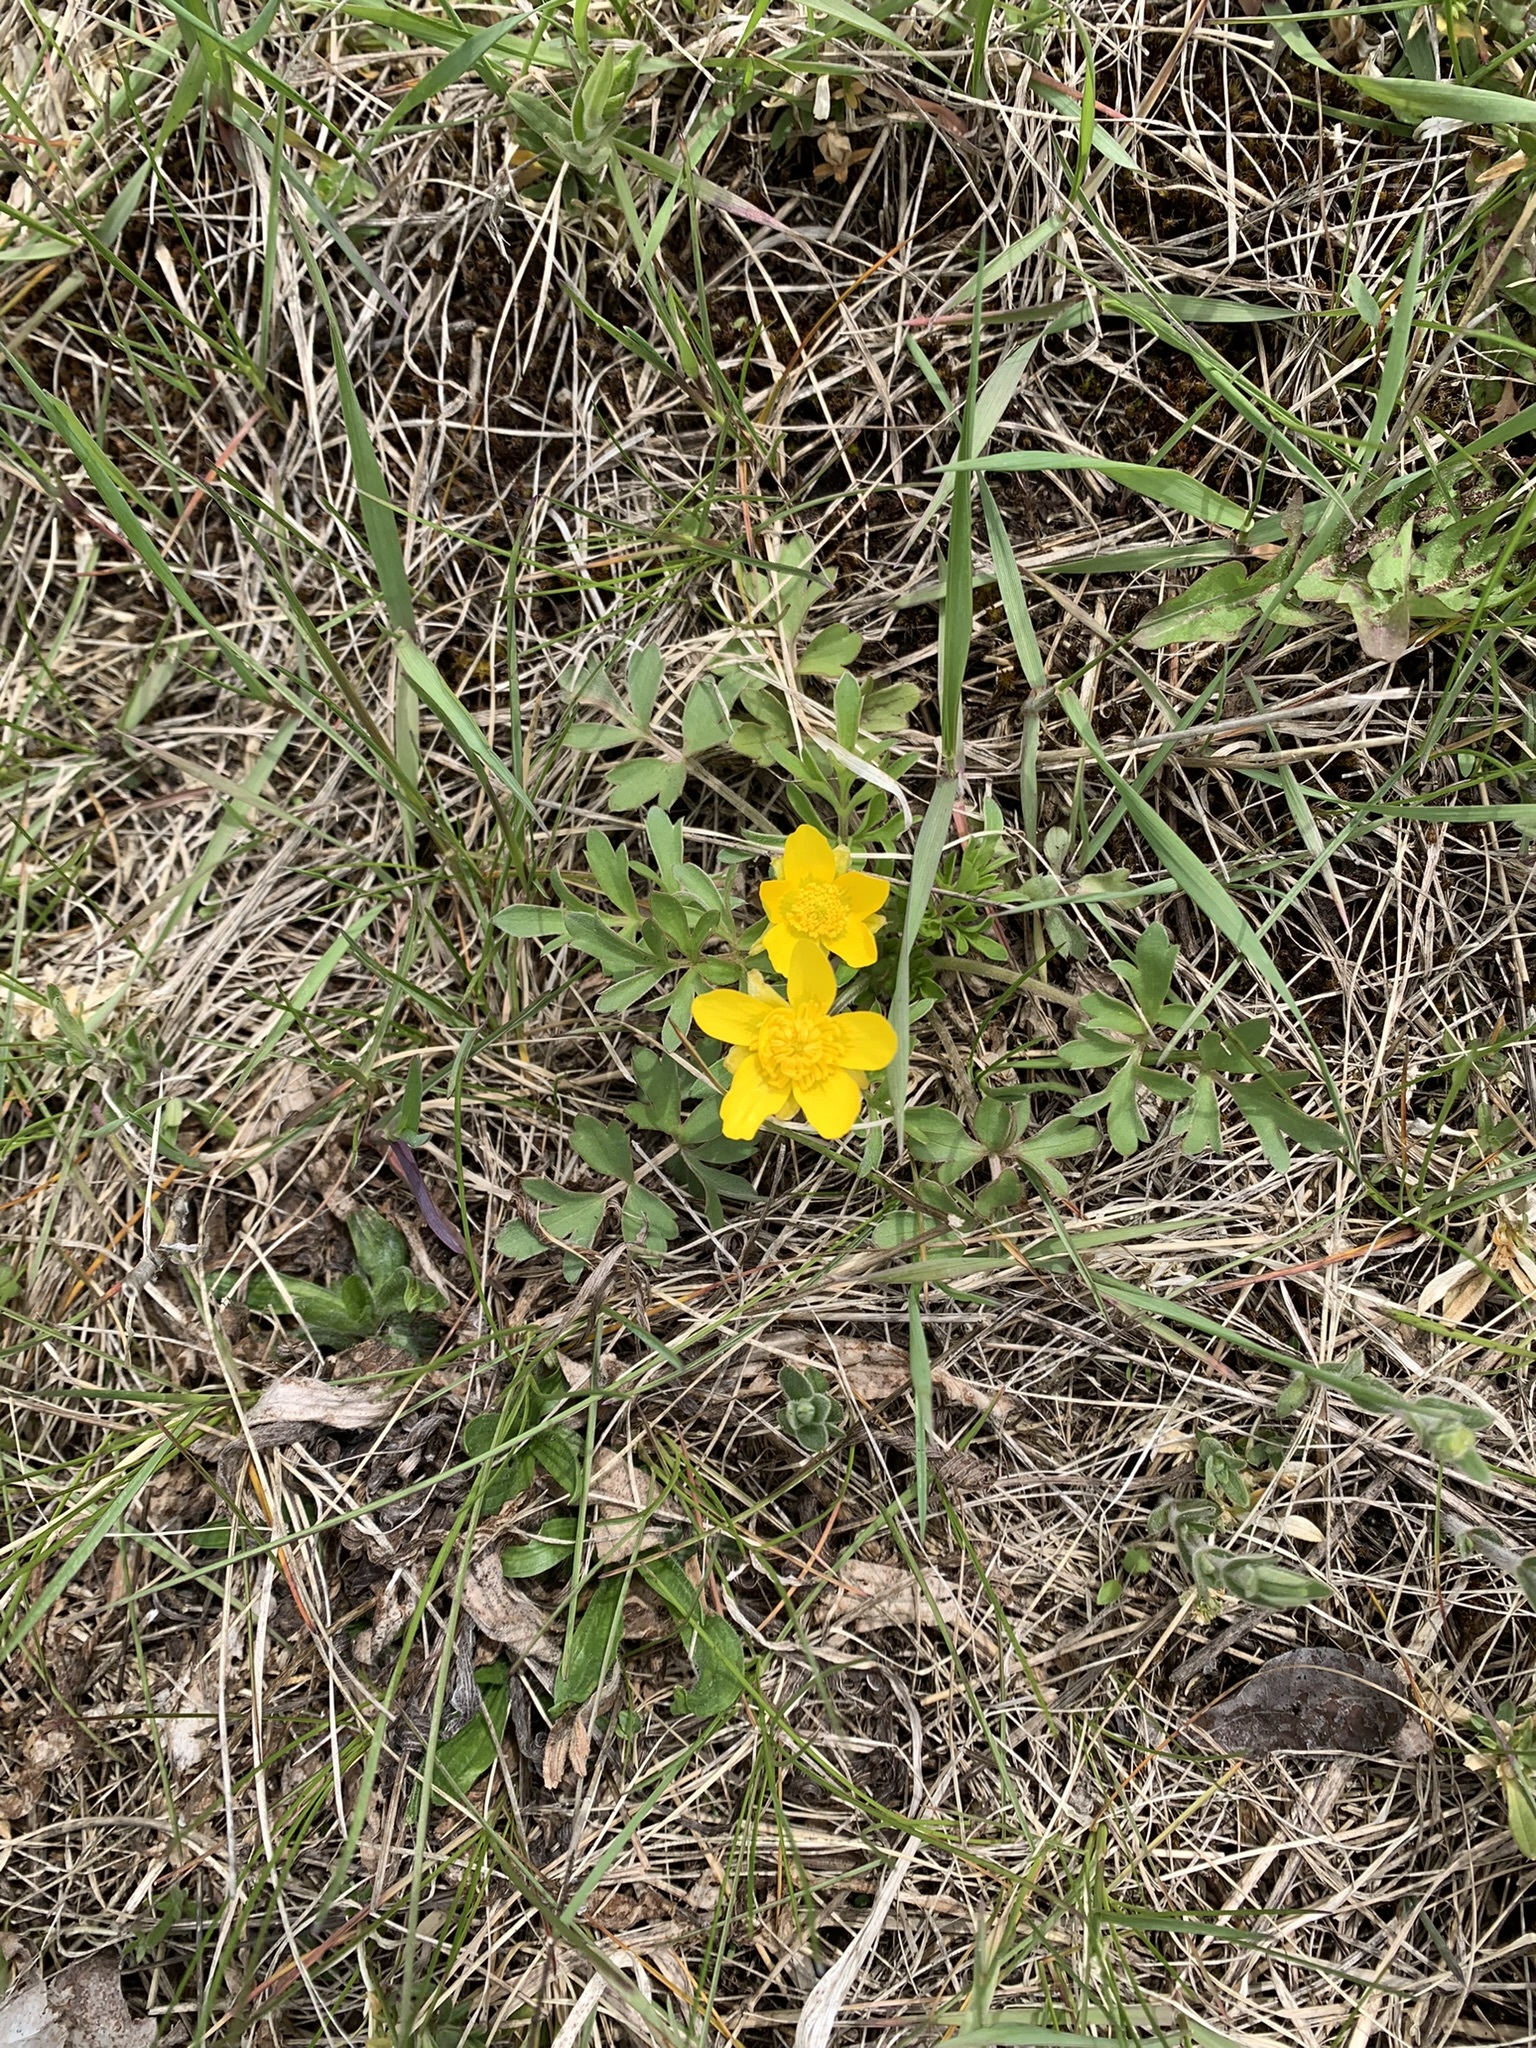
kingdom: Plantae
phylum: Tracheophyta
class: Magnoliopsida
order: Ranunculales
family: Ranunculaceae
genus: Ranunculus
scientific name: Ranunculus fascicularis
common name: Early buttercup
